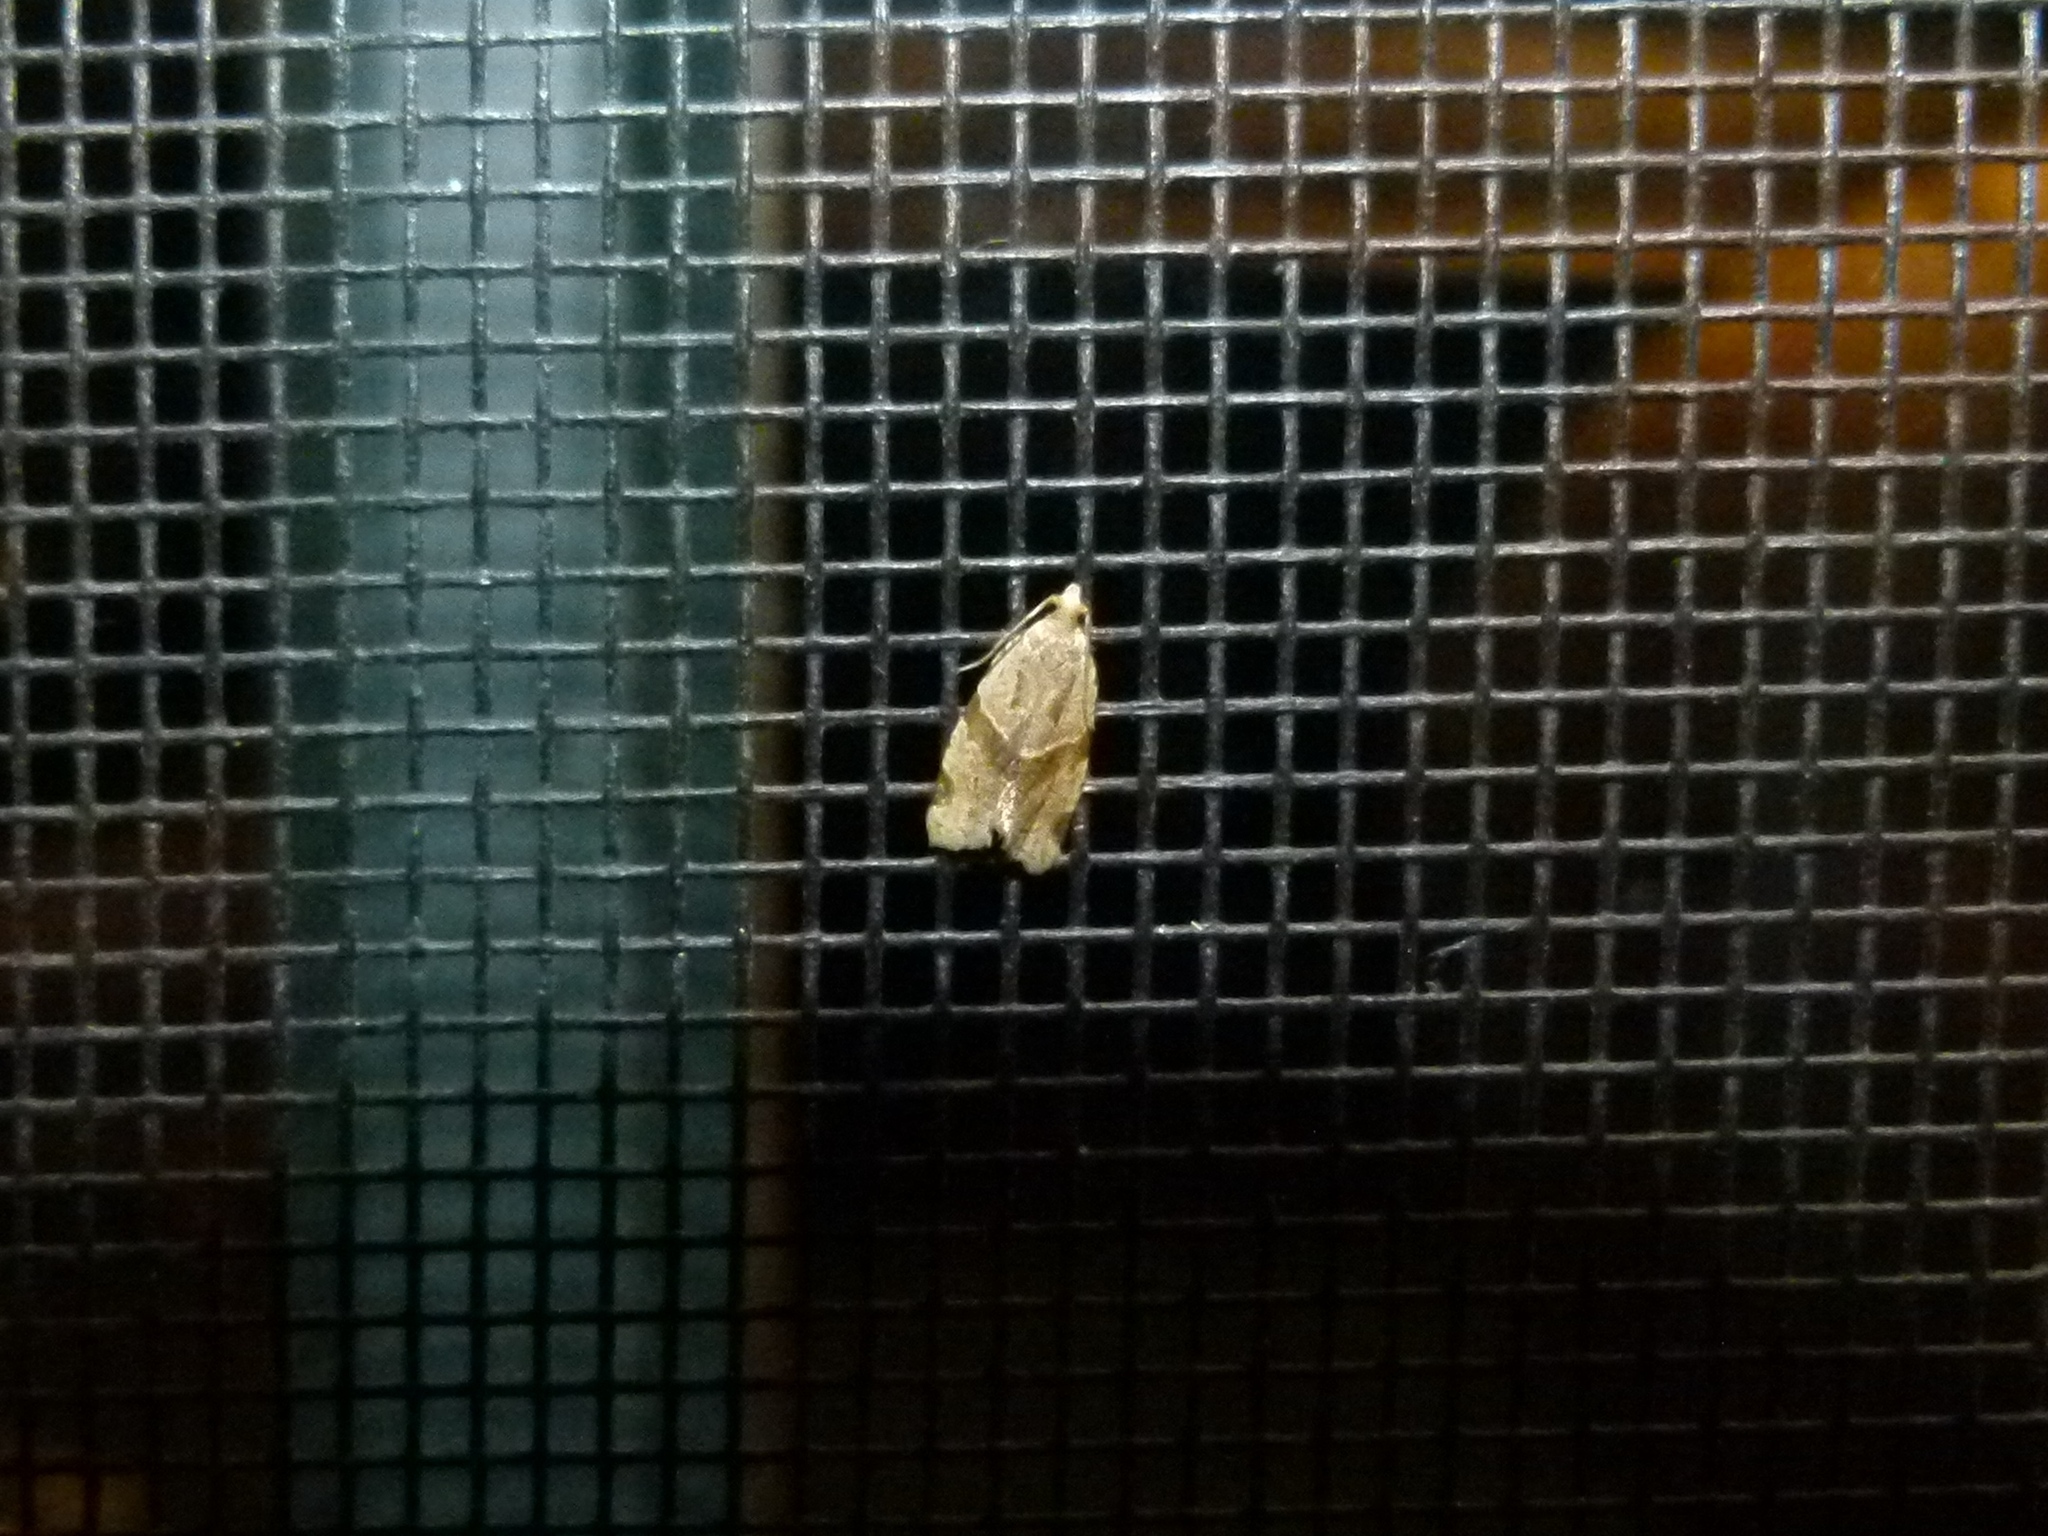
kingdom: Animalia
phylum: Arthropoda
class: Insecta
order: Lepidoptera
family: Tortricidae
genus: Clepsis
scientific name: Clepsis peritana
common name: Garden tortrix
